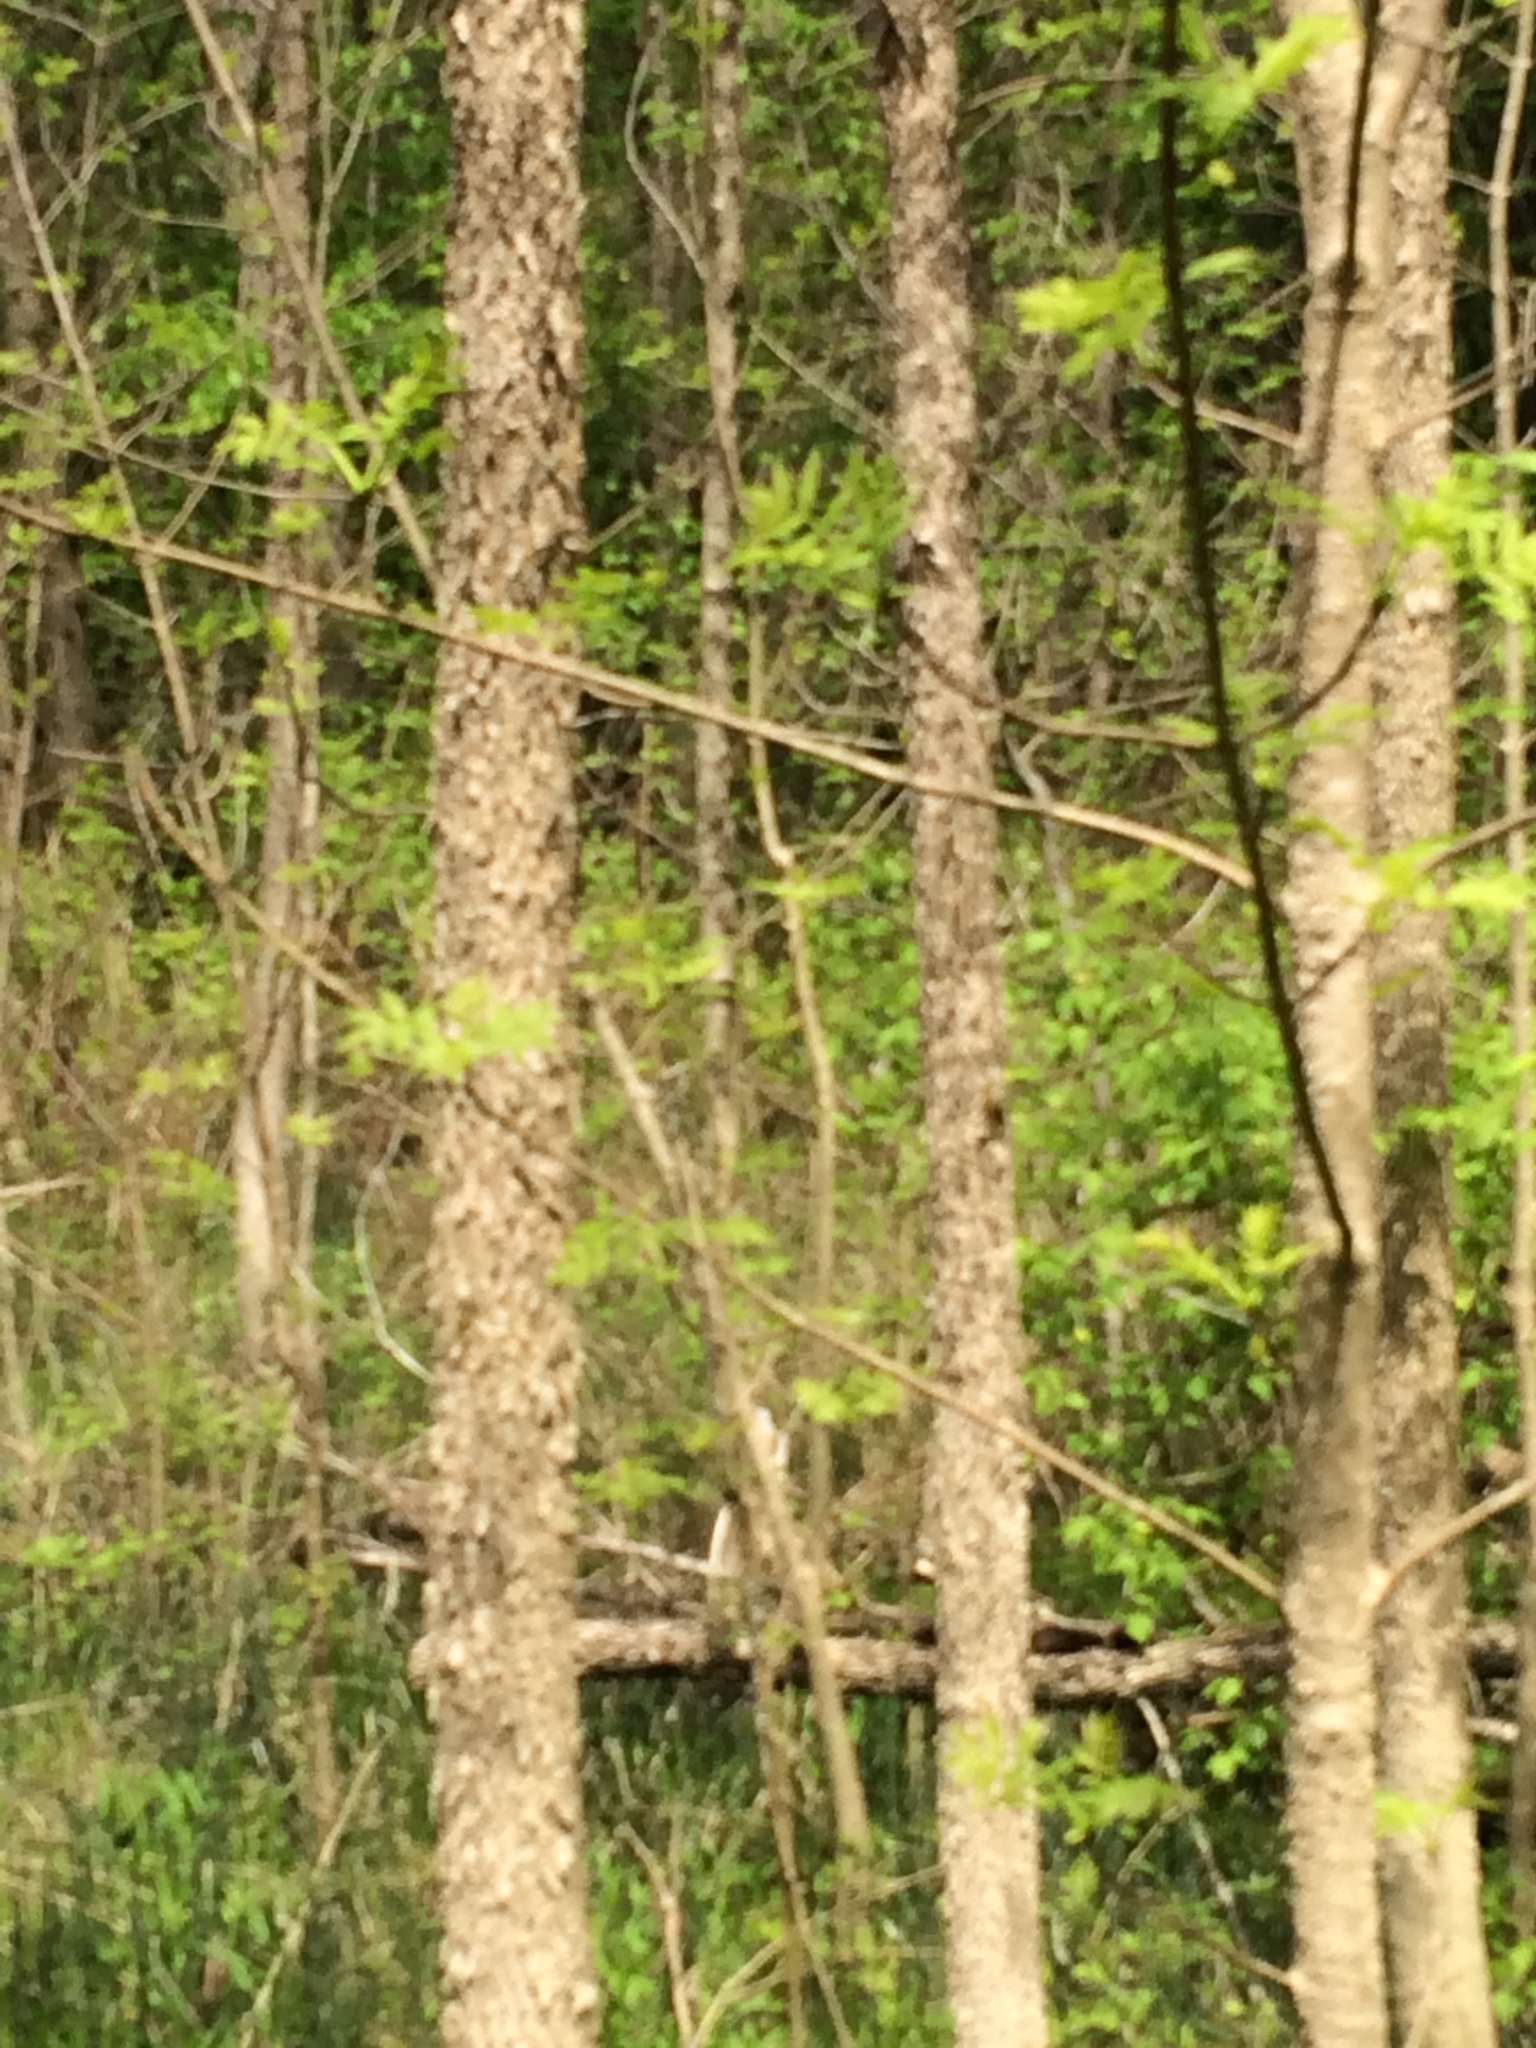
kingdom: Plantae
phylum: Tracheophyta
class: Magnoliopsida
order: Lamiales
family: Oleaceae
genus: Fraxinus
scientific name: Fraxinus nigra
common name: Black ash
